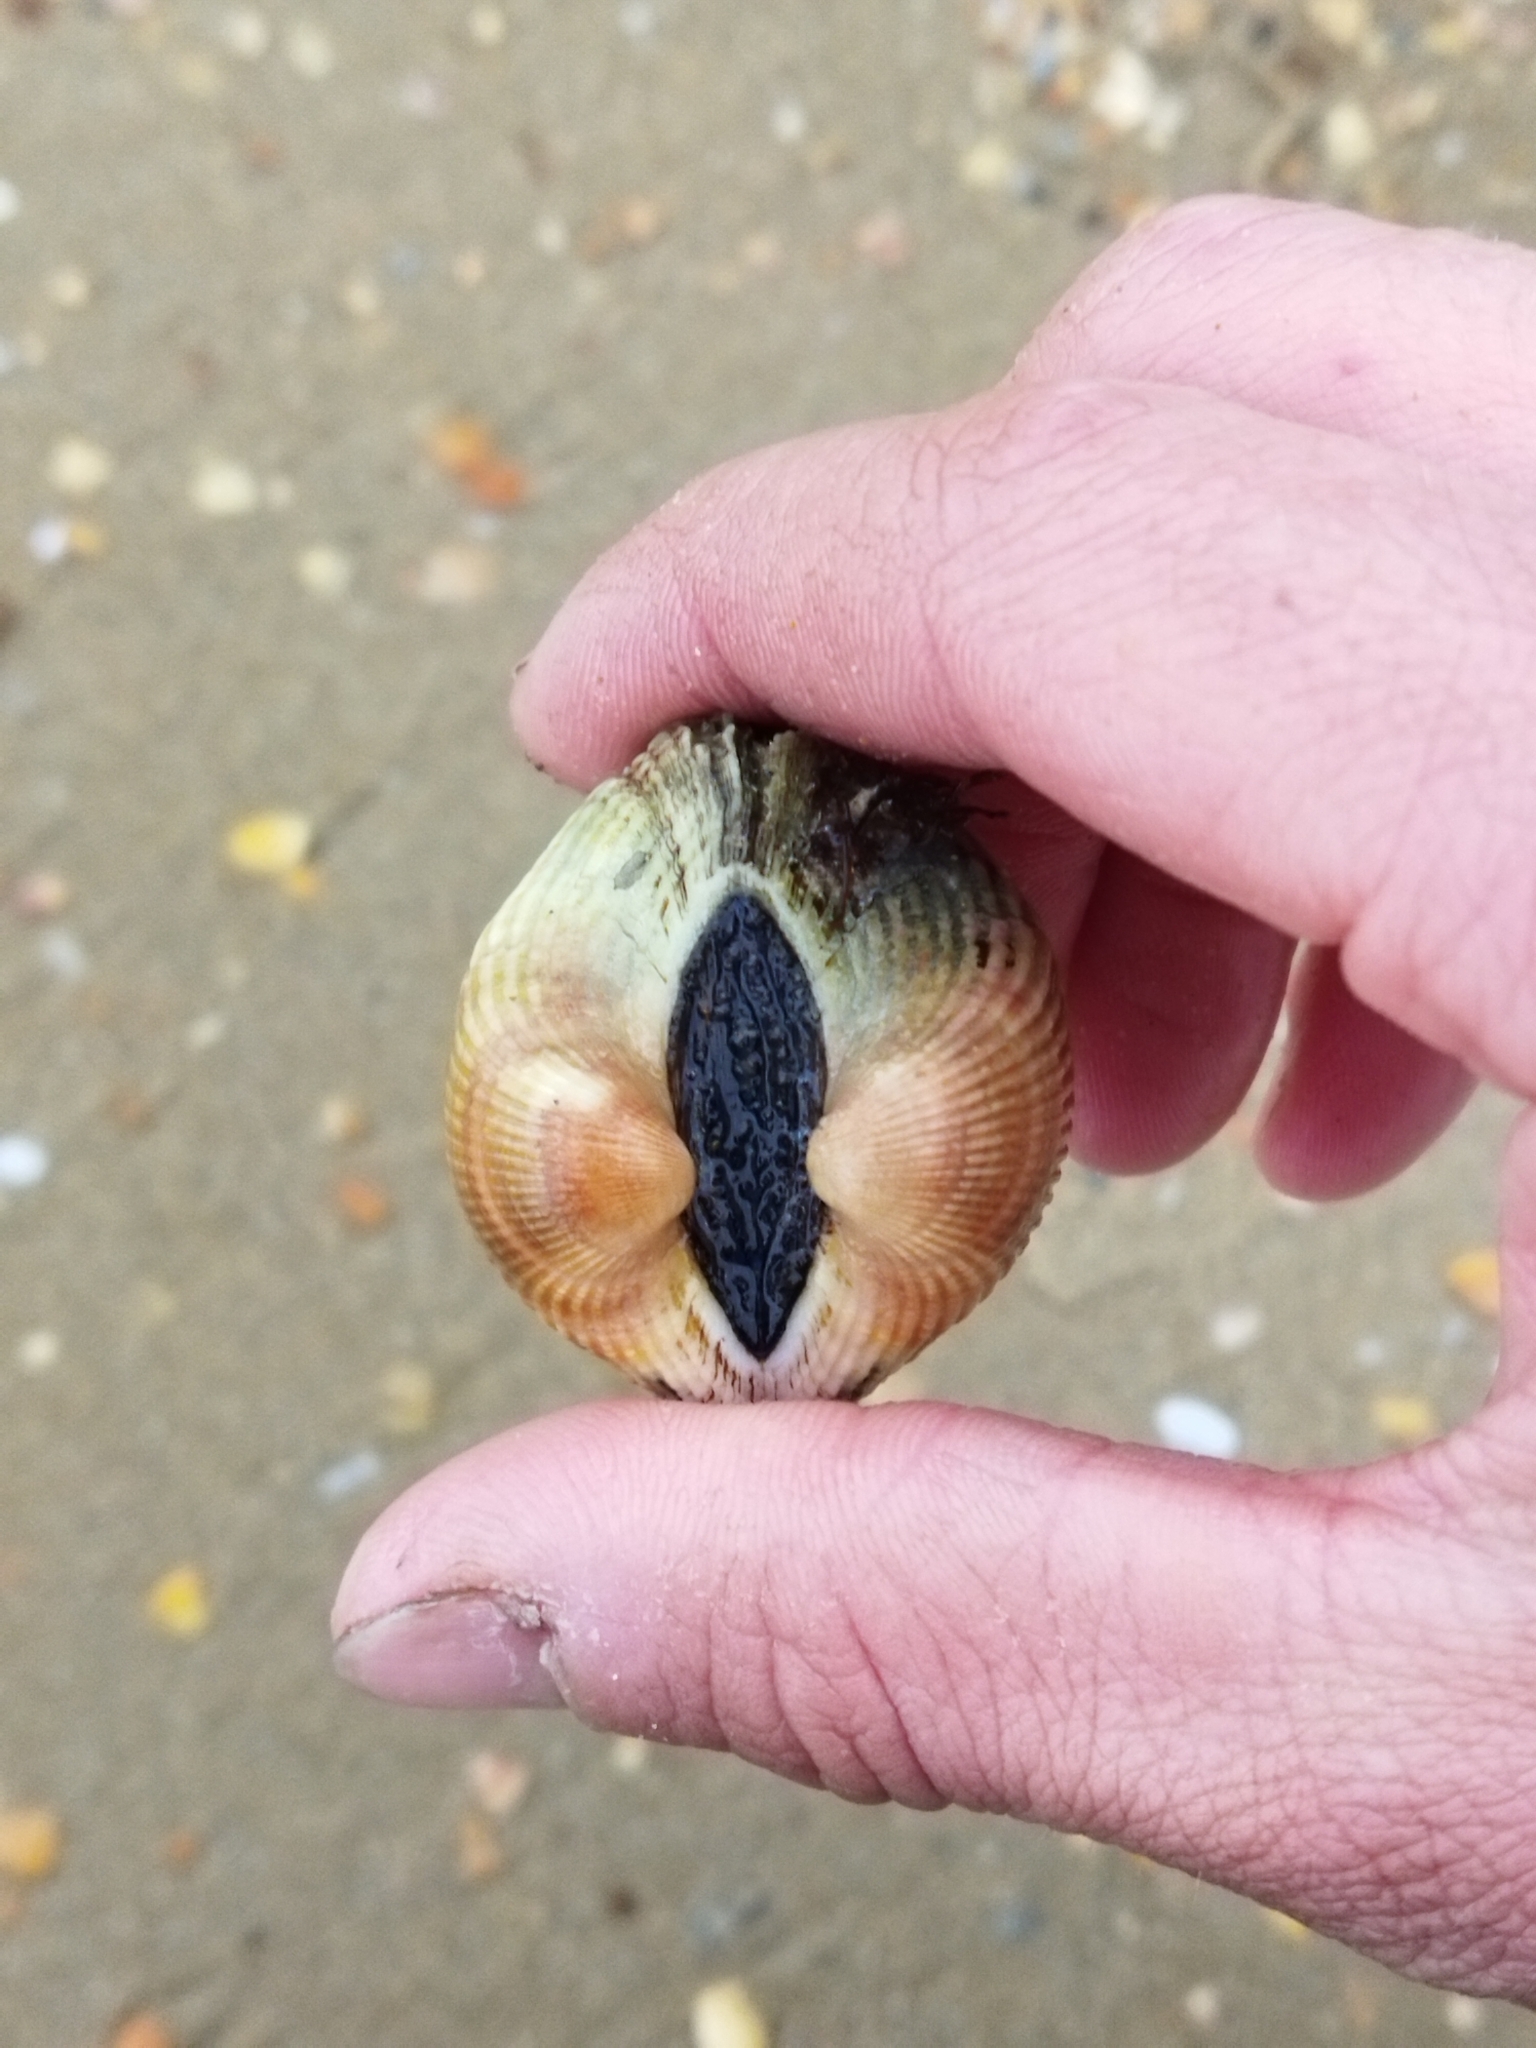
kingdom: Animalia
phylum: Mollusca
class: Bivalvia
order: Arcida
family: Arcidae
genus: Anadara
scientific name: Anadara kagoshimensis
